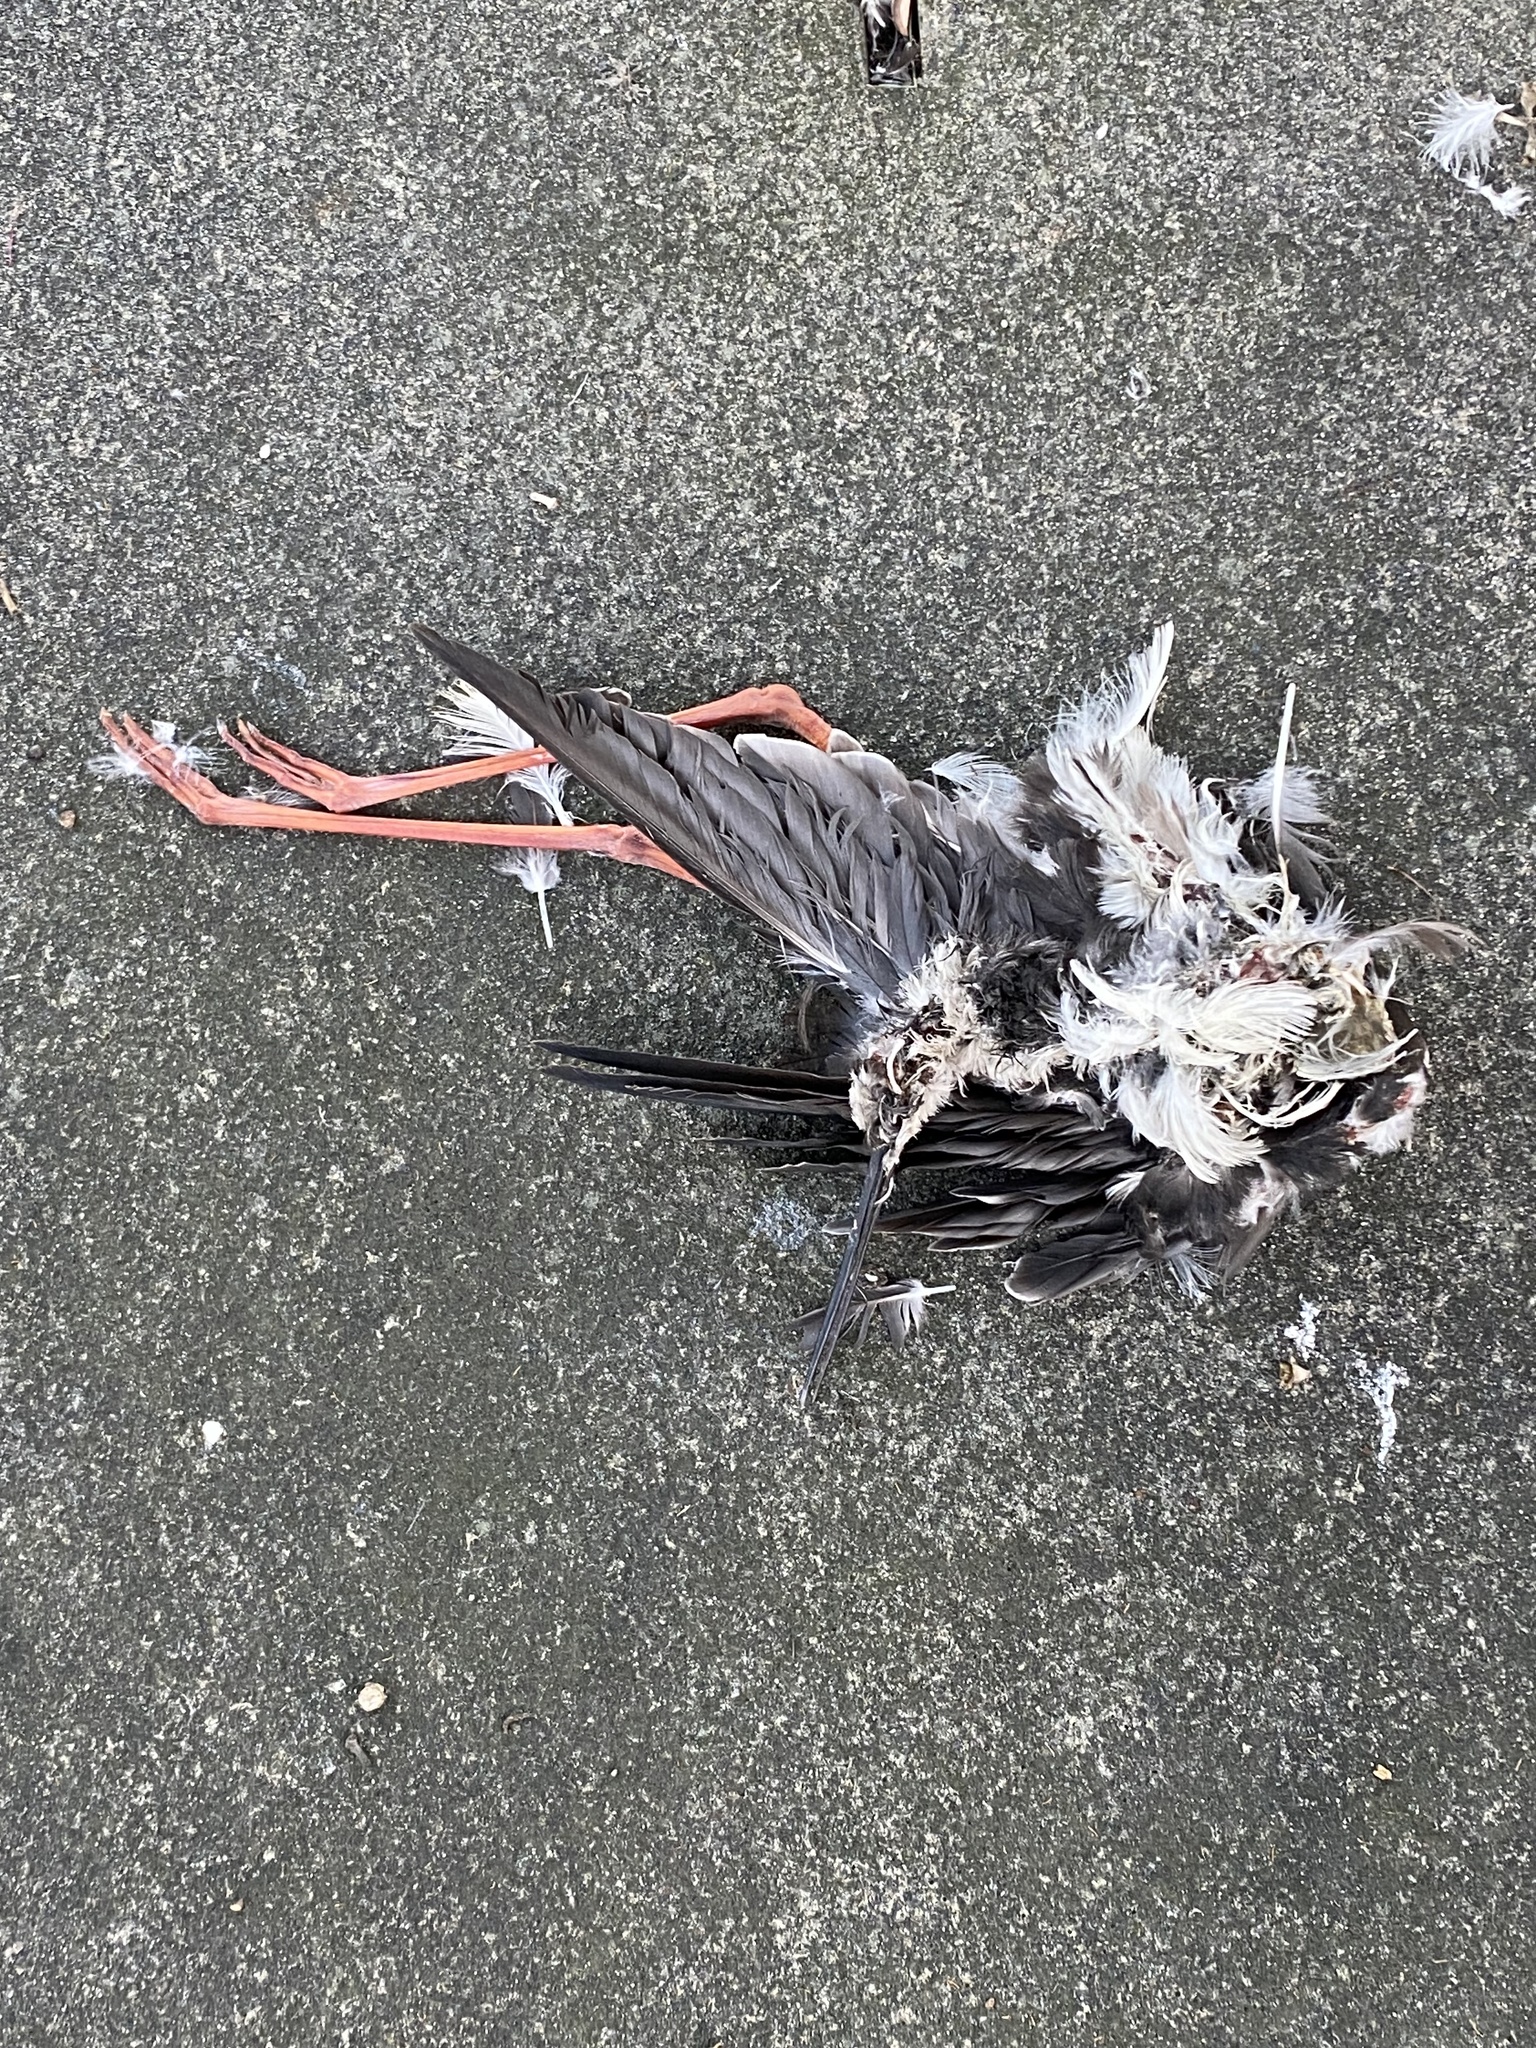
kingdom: Animalia
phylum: Chordata
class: Aves
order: Charadriiformes
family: Recurvirostridae
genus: Himantopus
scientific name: Himantopus mexicanus
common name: Black-necked stilt
